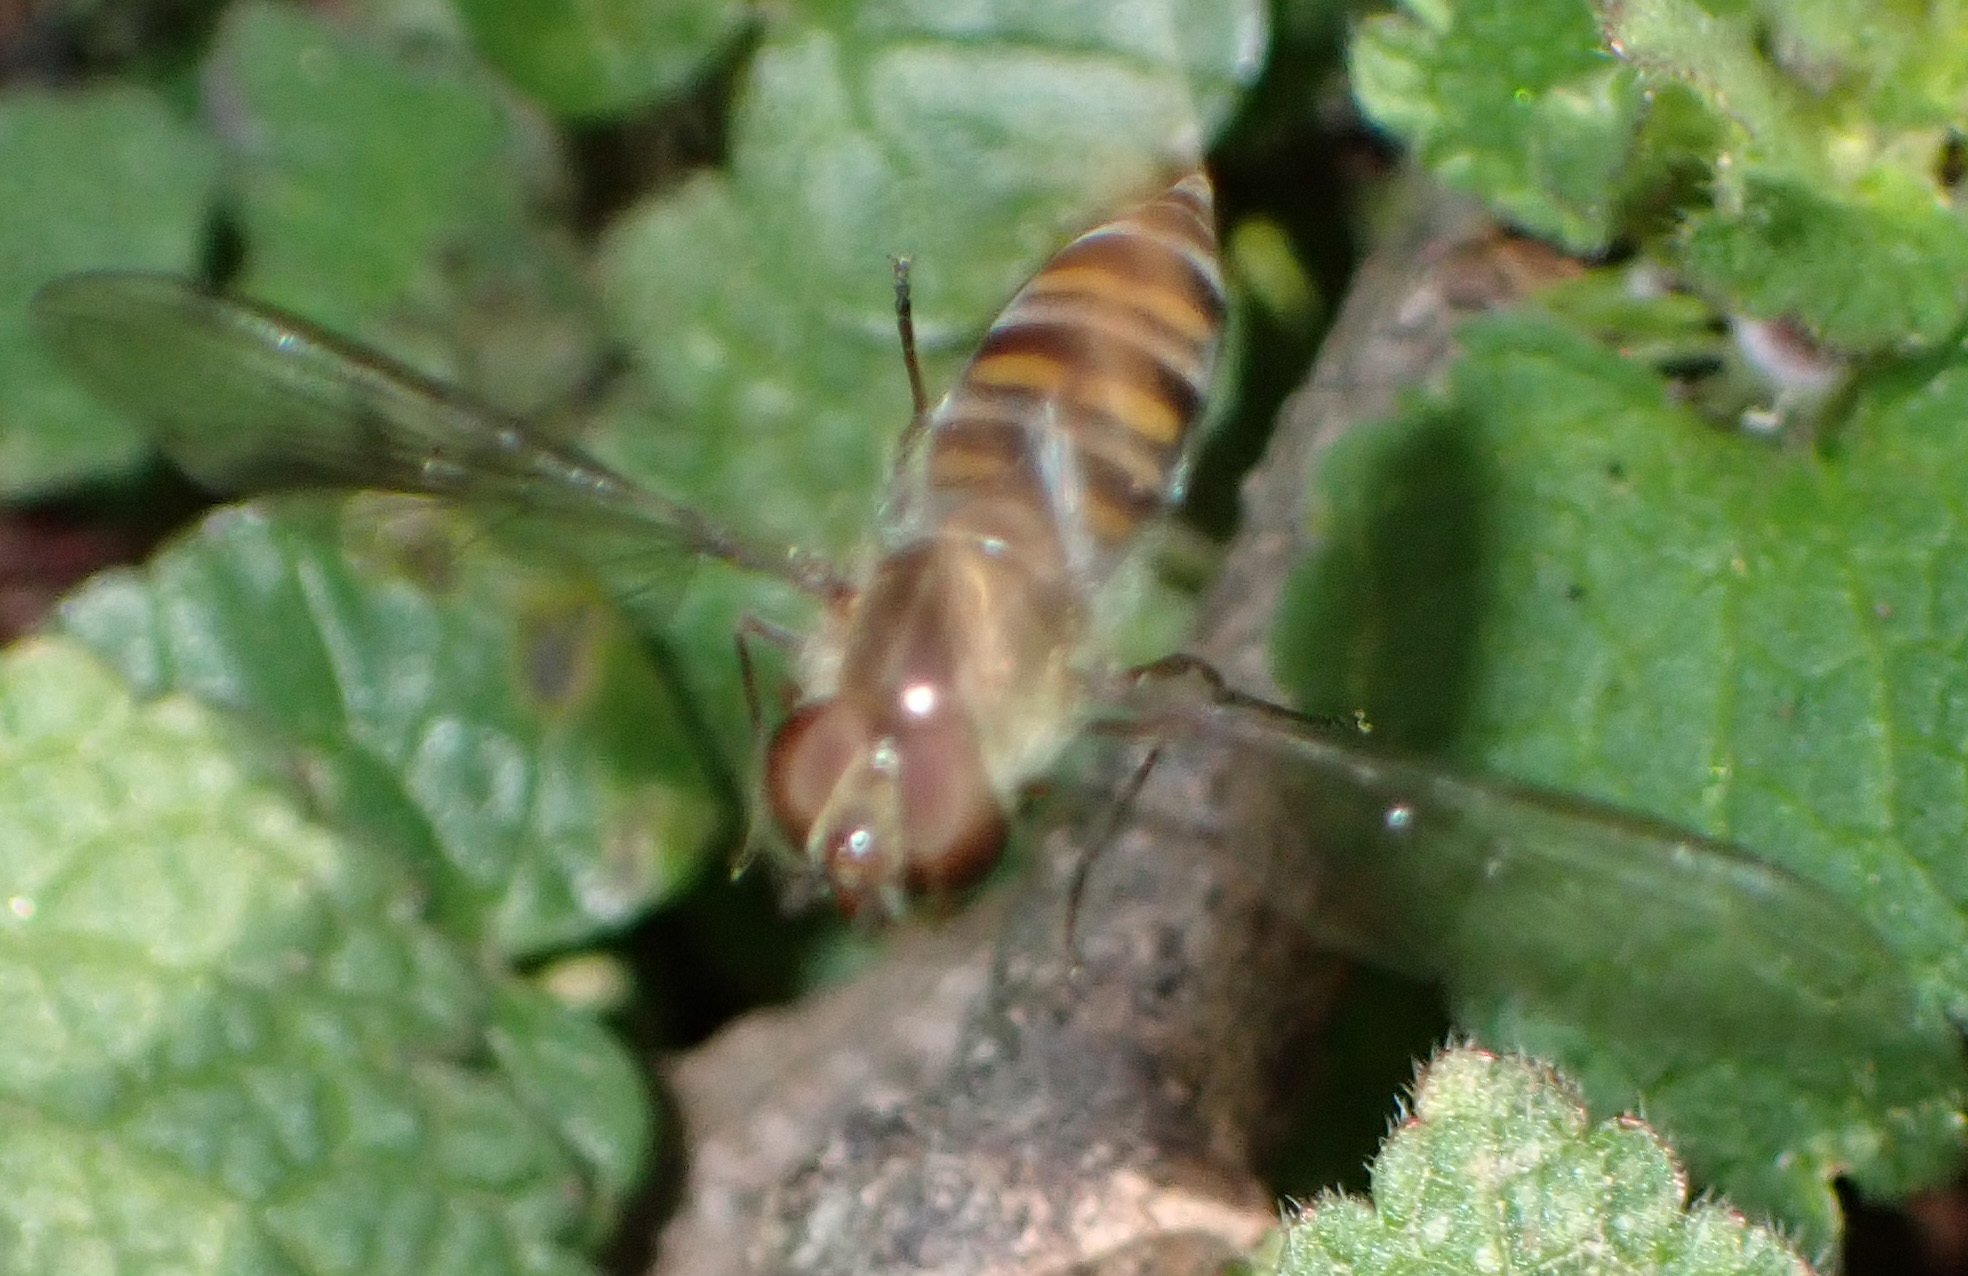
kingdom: Animalia
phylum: Arthropoda
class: Insecta
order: Diptera
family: Syrphidae
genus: Episyrphus
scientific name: Episyrphus balteatus
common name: Marmalade hoverfly
